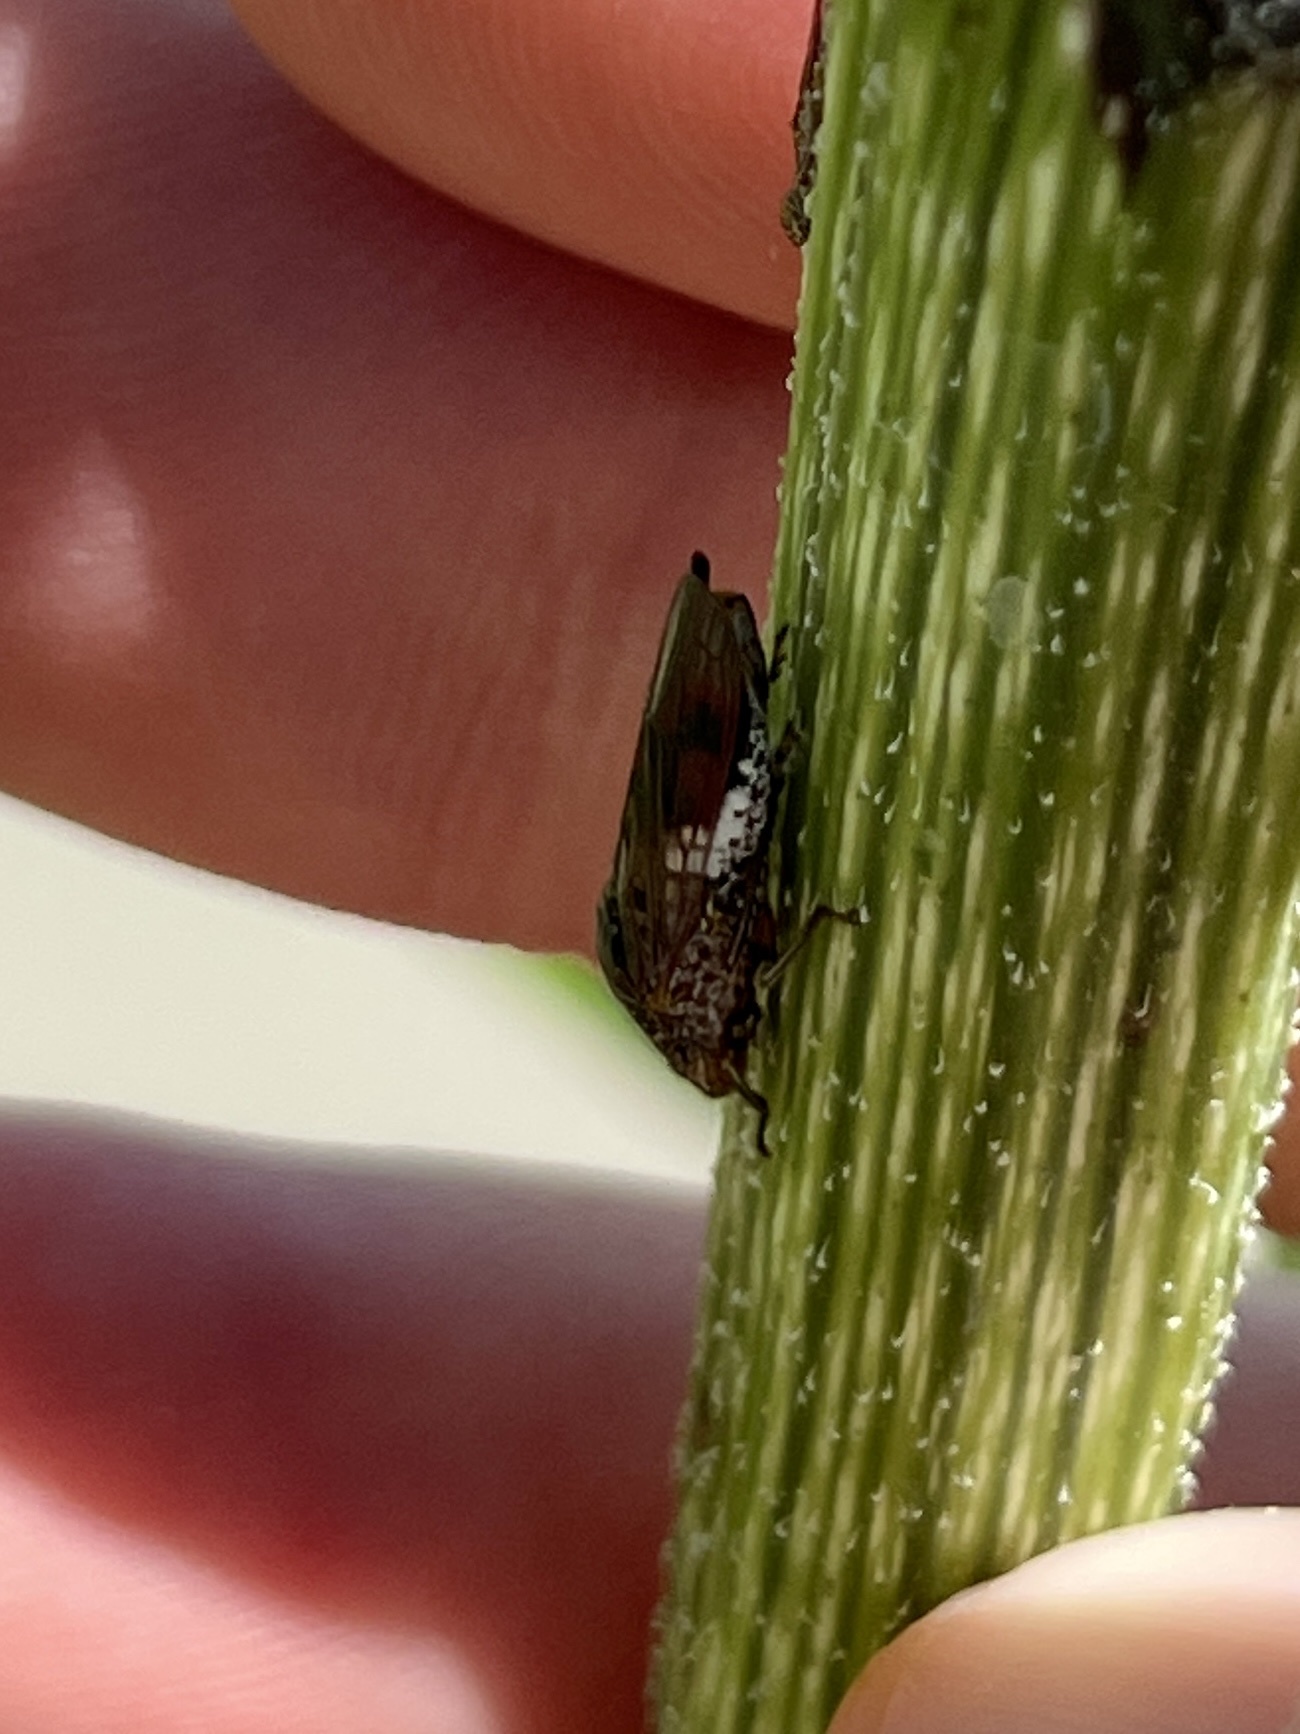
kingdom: Animalia
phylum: Arthropoda
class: Insecta
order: Hemiptera
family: Cicadellidae
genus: Homalodisca
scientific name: Homalodisca vitripennis
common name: Glassy-winged sharpshooter
